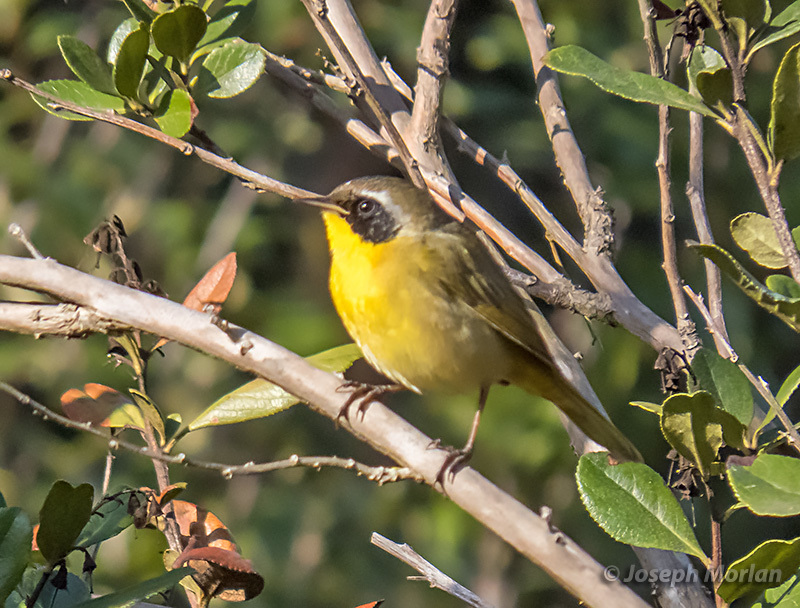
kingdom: Animalia
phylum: Chordata
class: Aves
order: Passeriformes
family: Parulidae
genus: Geothlypis
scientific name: Geothlypis trichas
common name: Common yellowthroat
